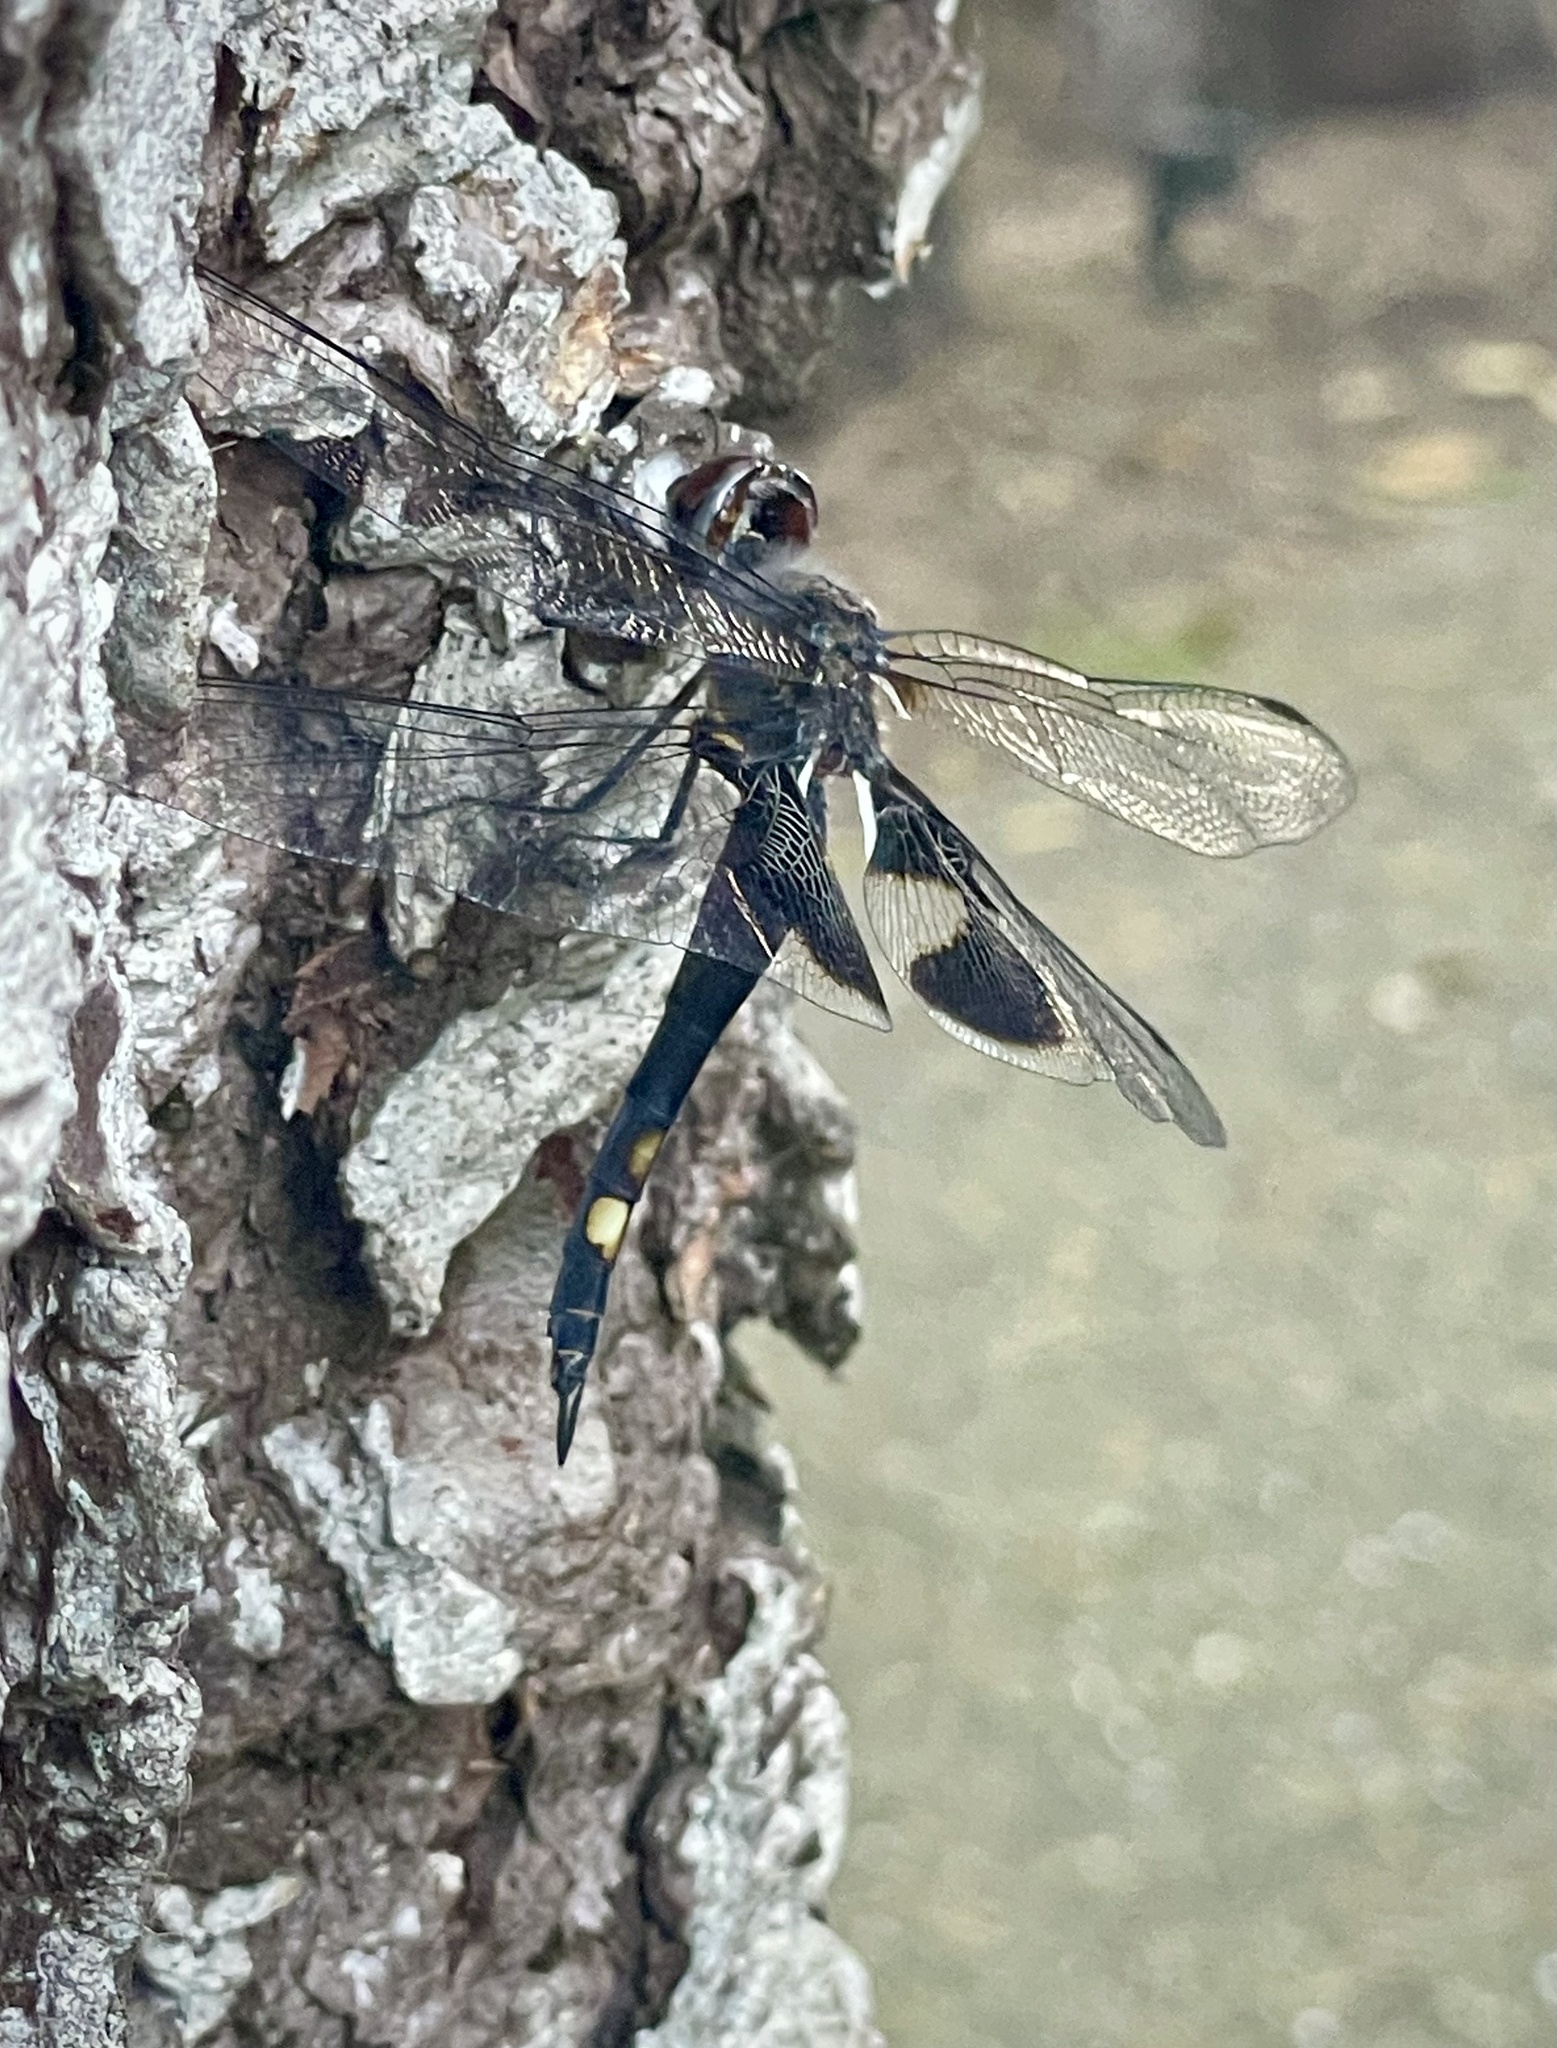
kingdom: Animalia
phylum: Arthropoda
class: Insecta
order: Odonata
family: Libellulidae
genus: Tramea
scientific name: Tramea lacerata
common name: Black saddlebags
